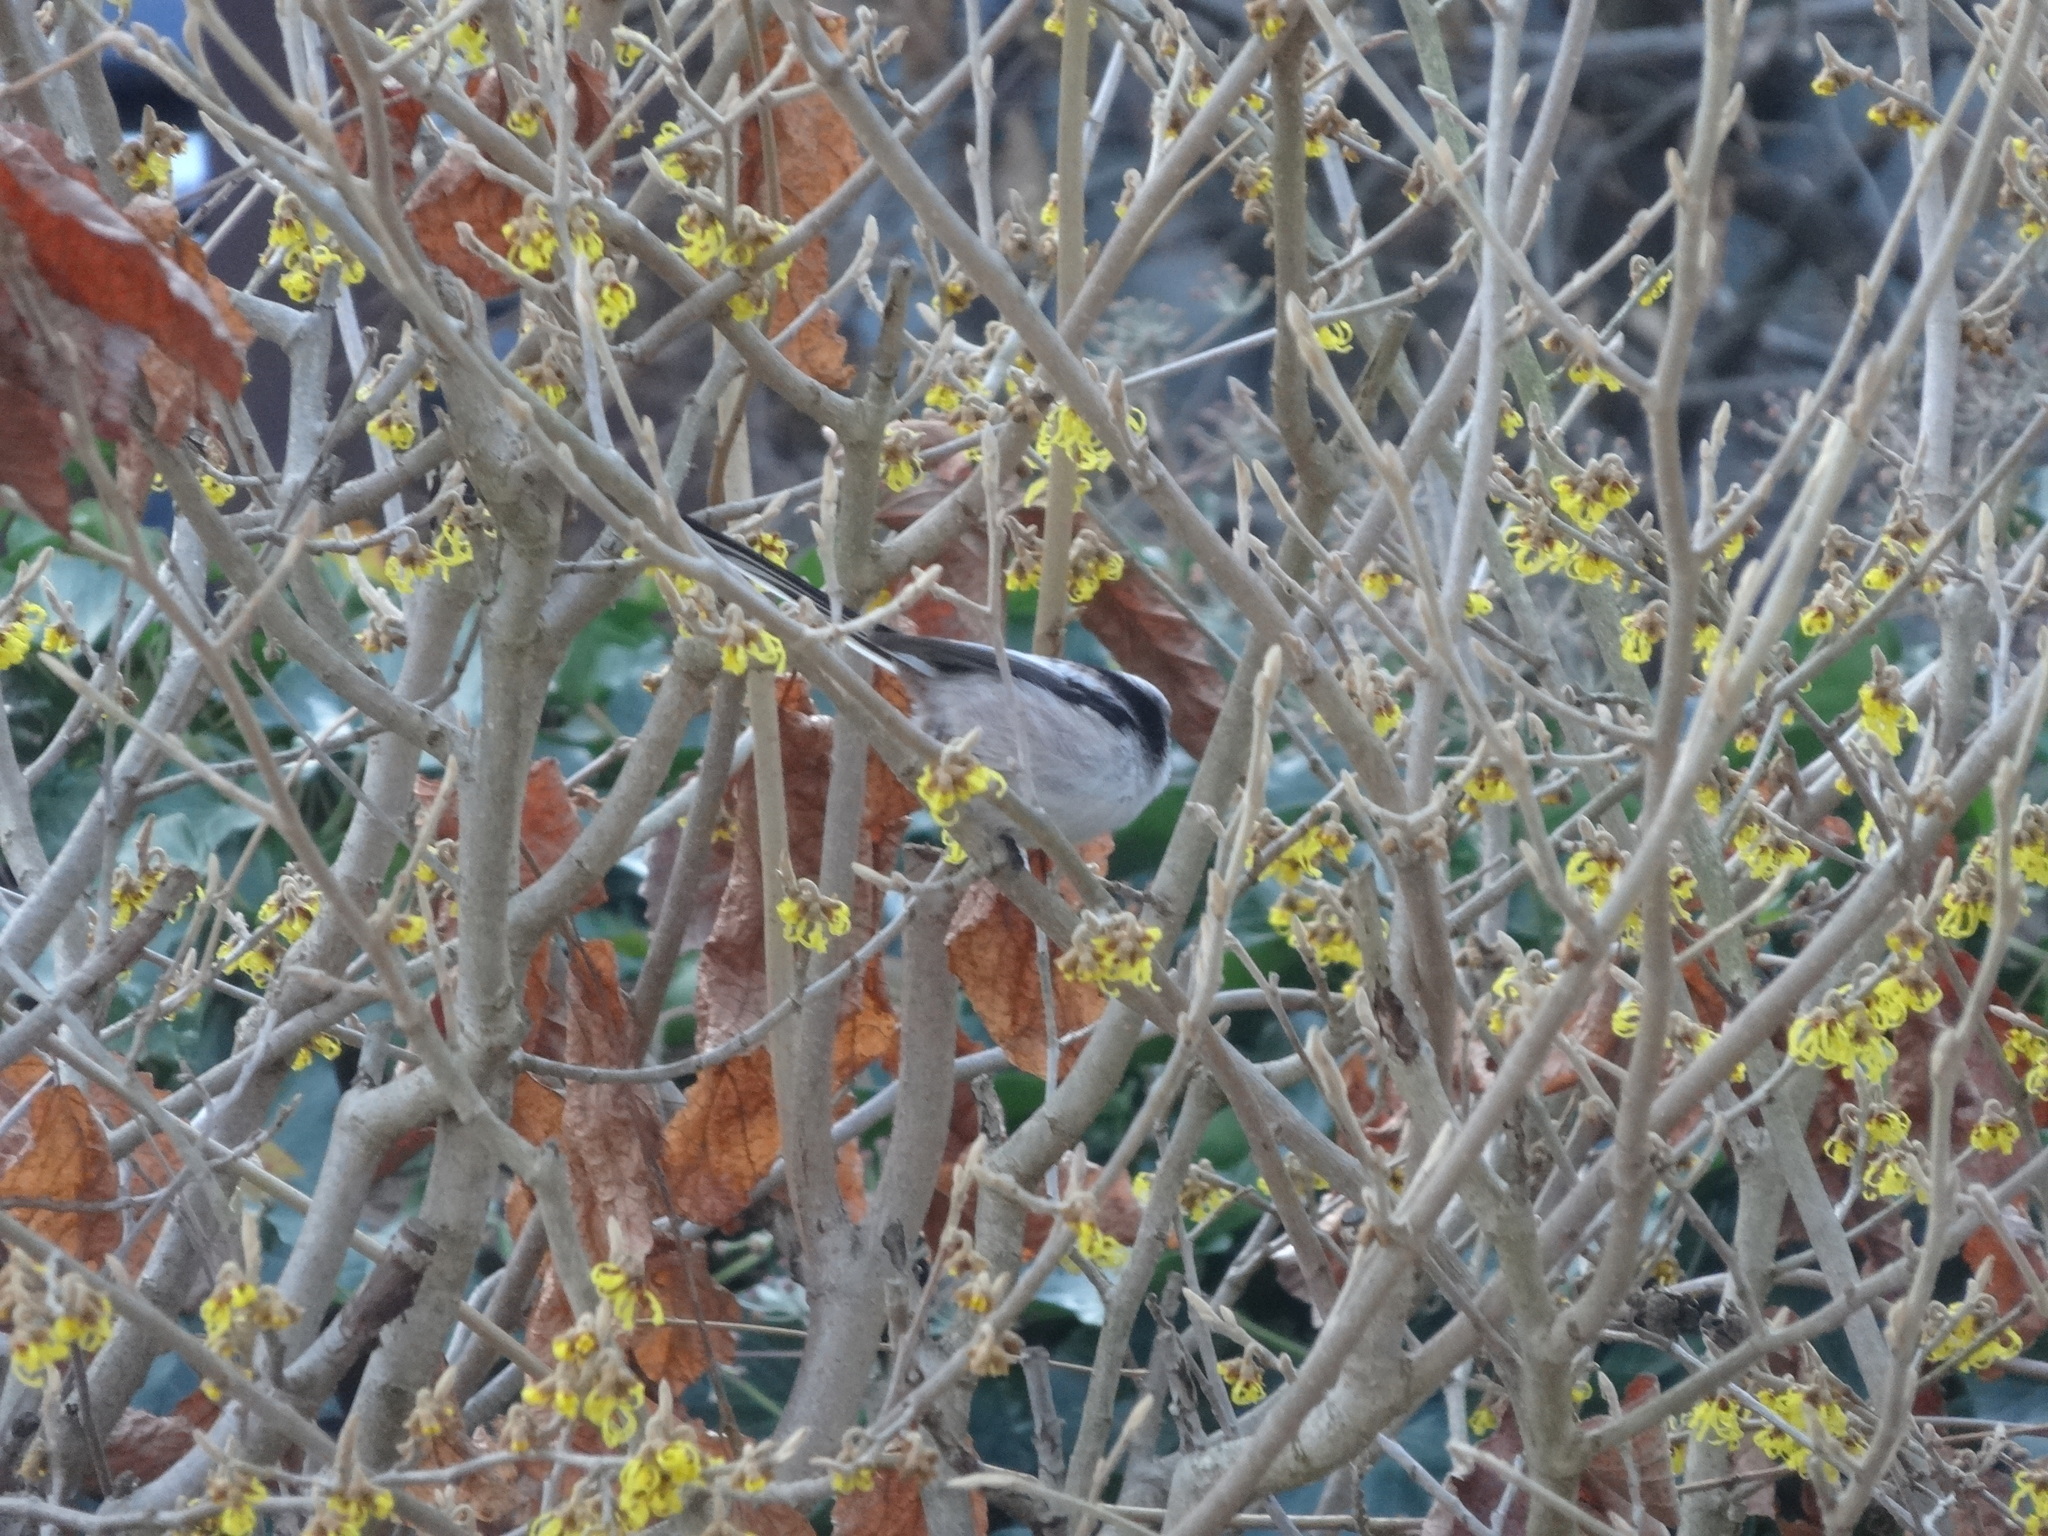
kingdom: Animalia
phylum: Chordata
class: Aves
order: Passeriformes
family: Aegithalidae
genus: Aegithalos
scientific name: Aegithalos caudatus
